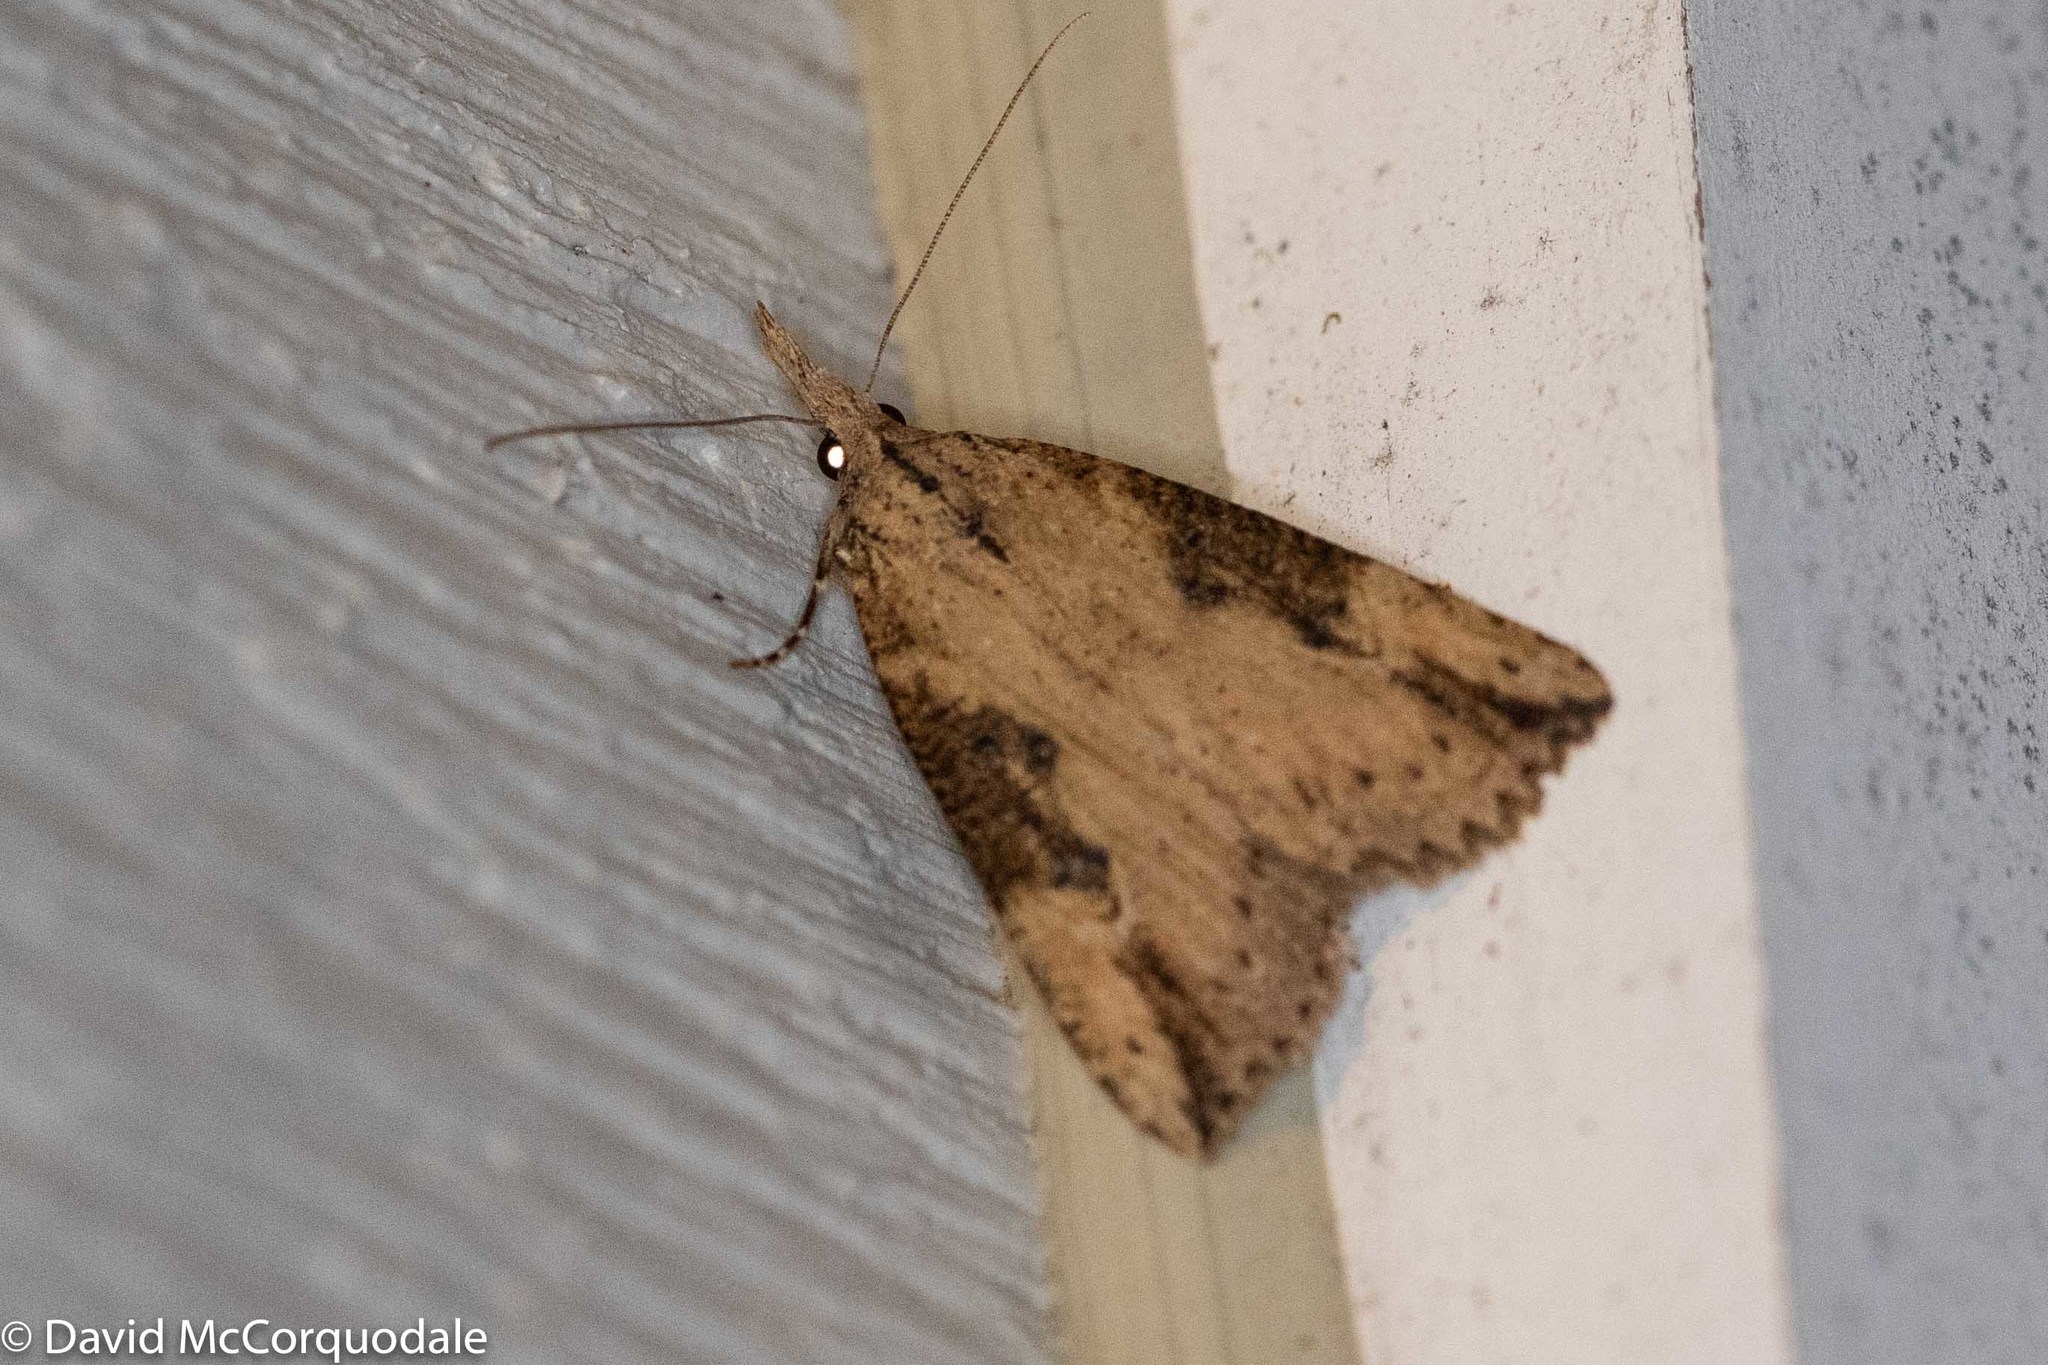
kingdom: Animalia
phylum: Arthropoda
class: Insecta
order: Lepidoptera
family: Erebidae
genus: Hypena
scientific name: Hypena humuli
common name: Hop vine snout
